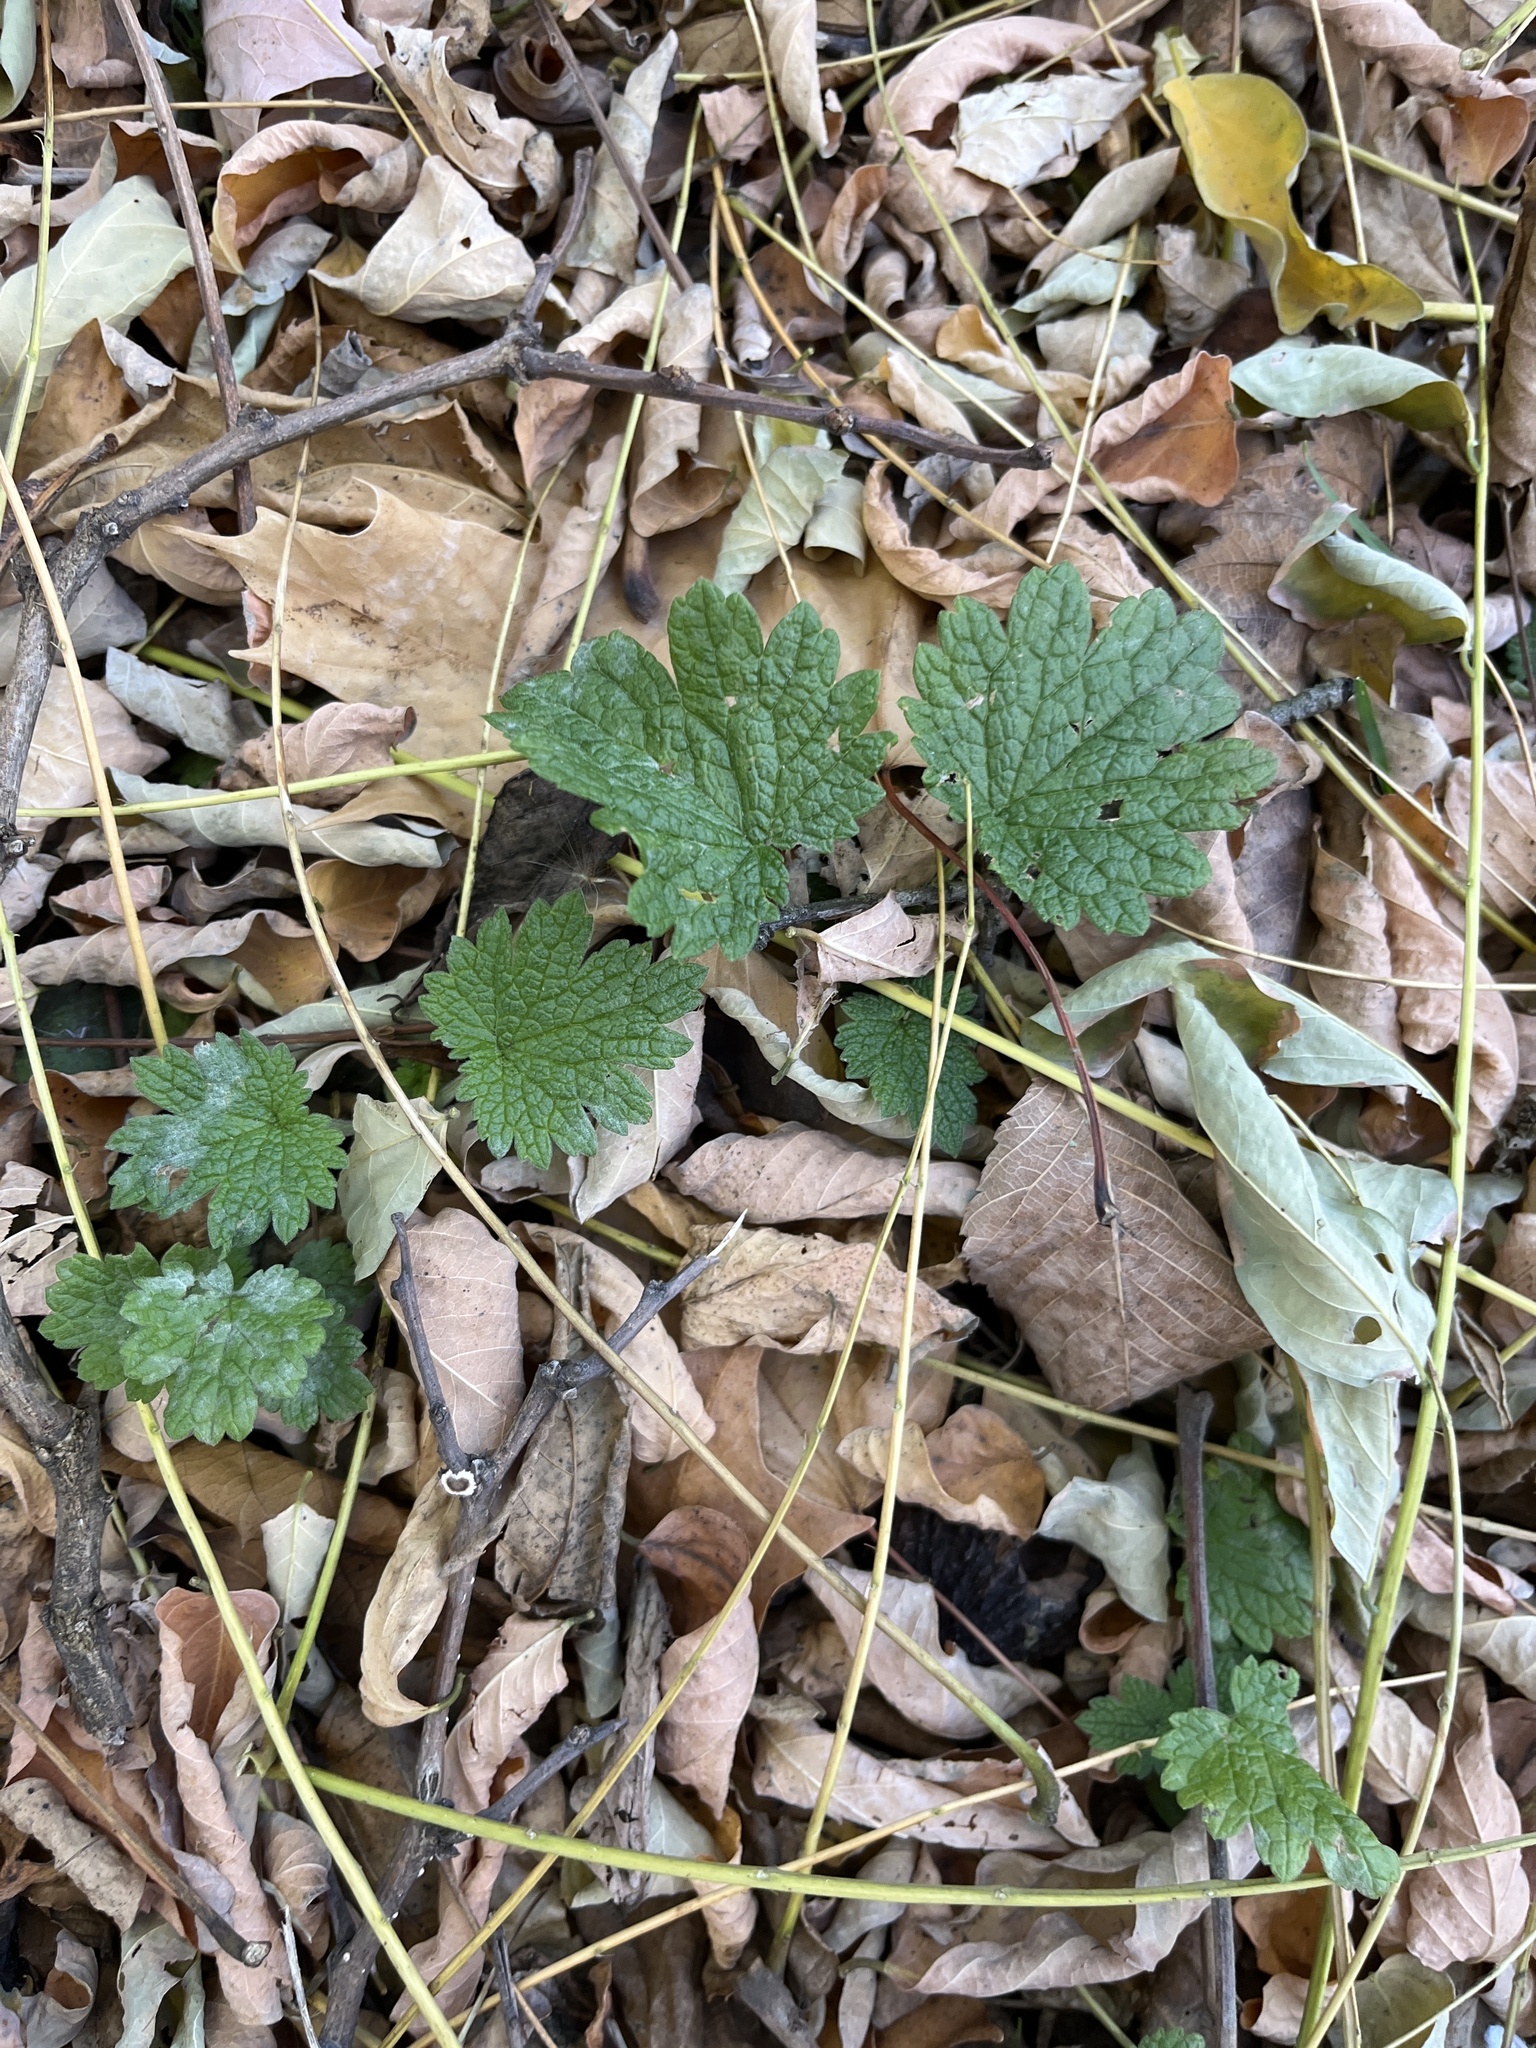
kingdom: Plantae
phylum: Tracheophyta
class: Magnoliopsida
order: Lamiales
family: Lamiaceae
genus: Leonurus
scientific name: Leonurus cardiaca
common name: Motherwort
